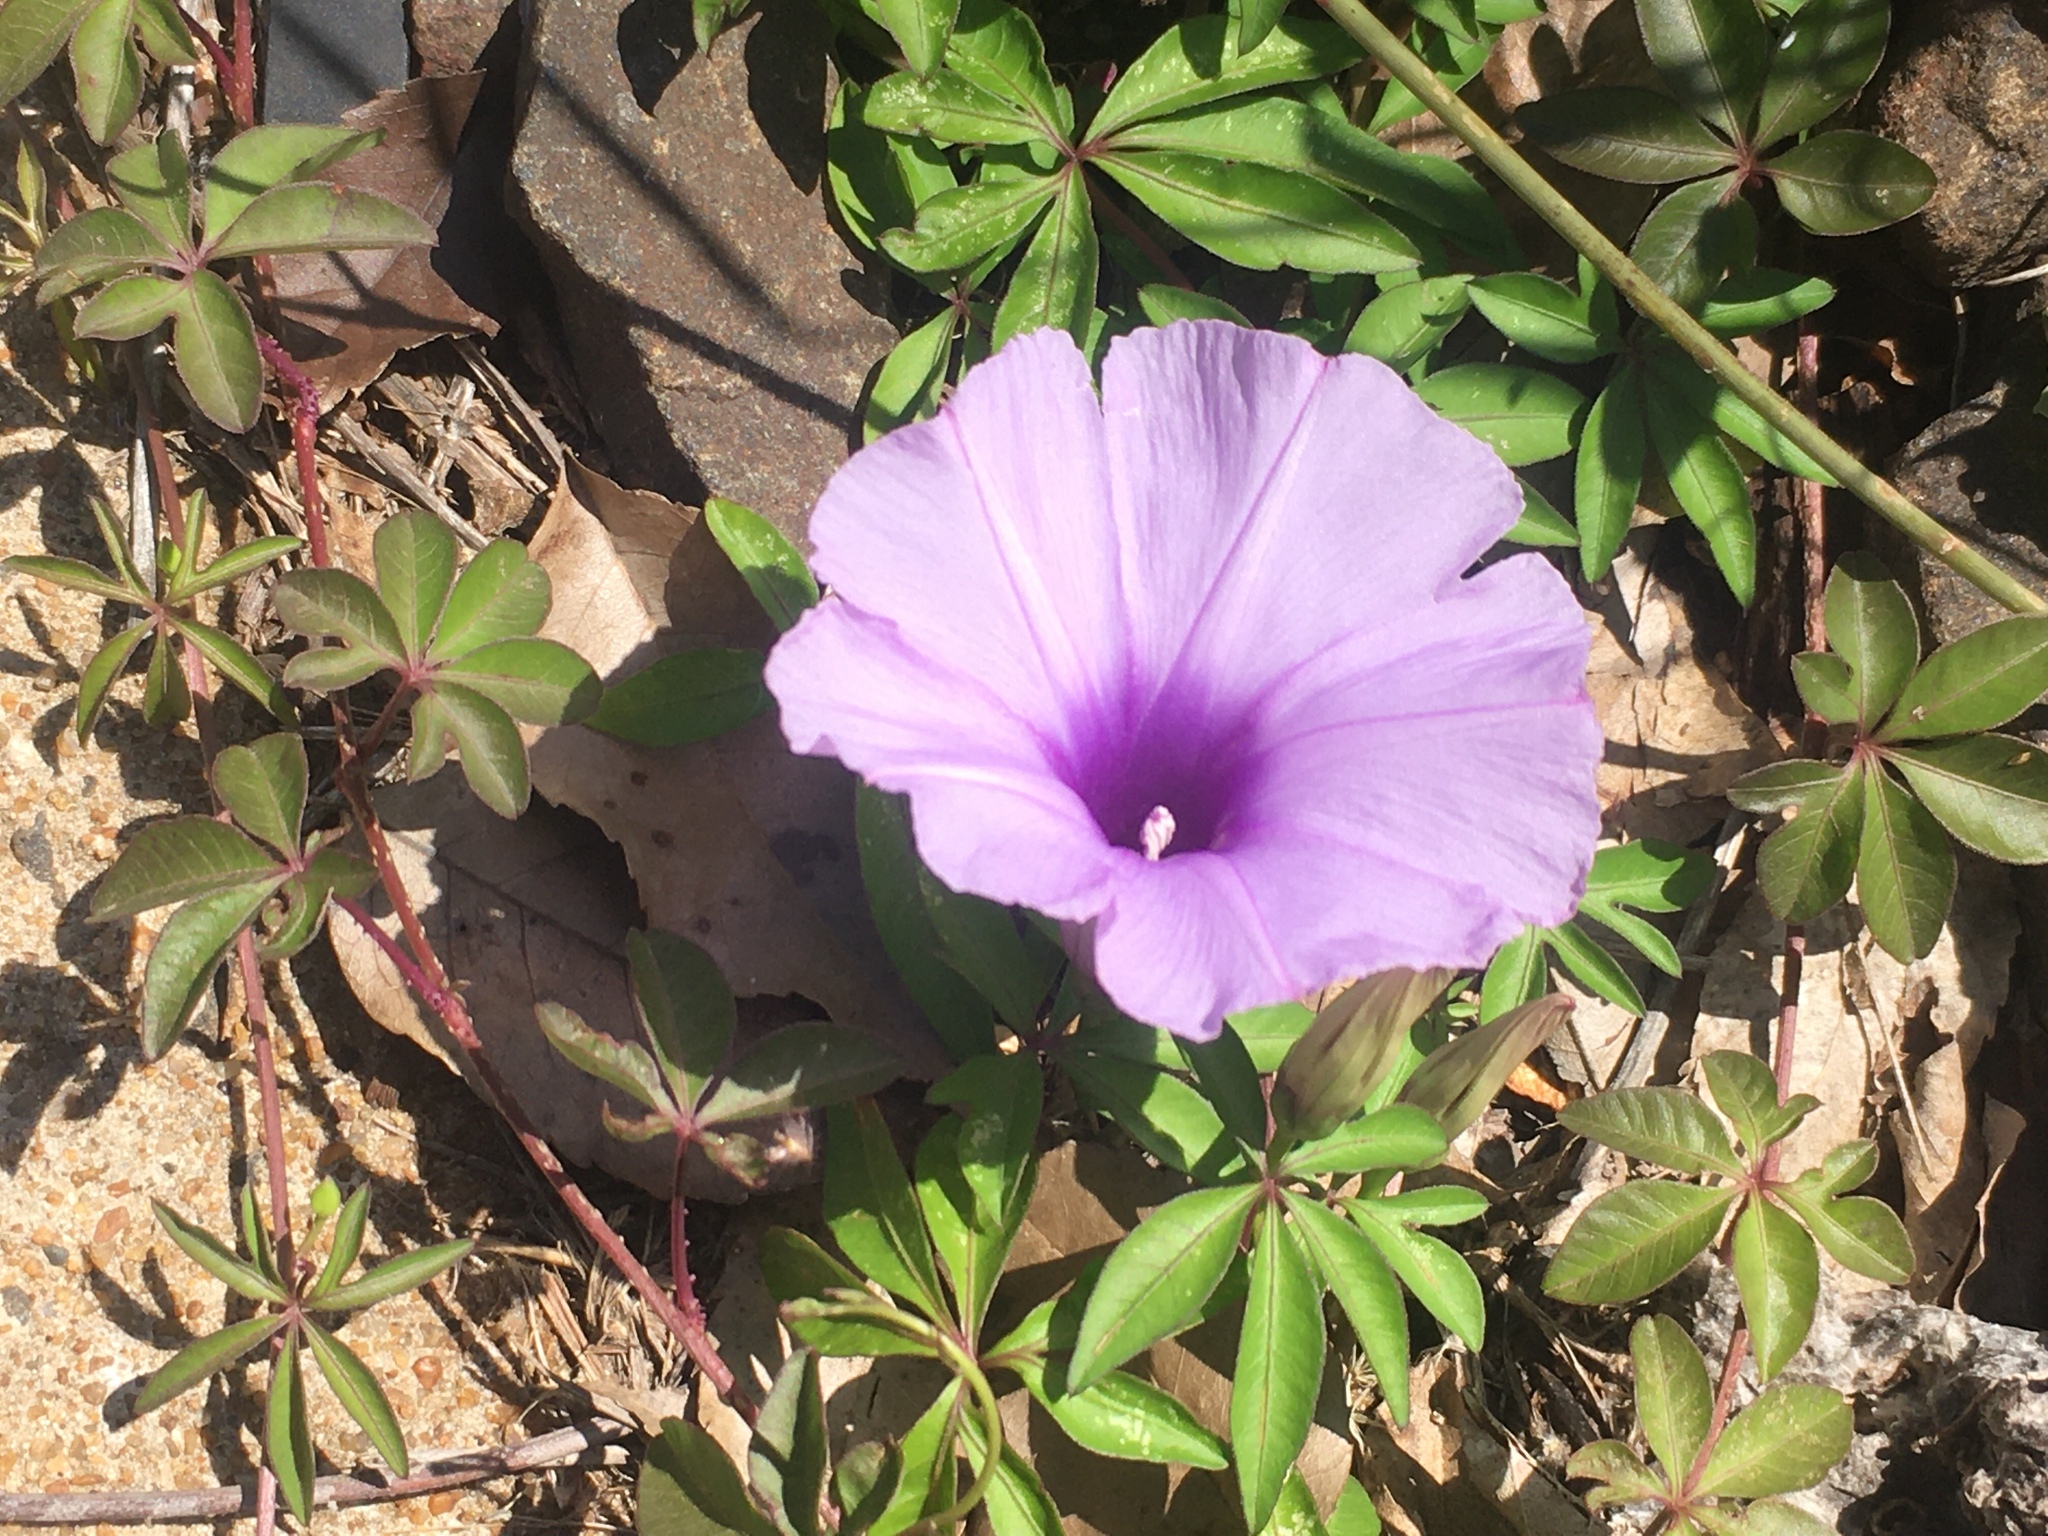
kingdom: Plantae
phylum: Tracheophyta
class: Magnoliopsida
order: Solanales
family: Convolvulaceae
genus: Ipomoea
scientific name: Ipomoea cairica
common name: Mile a minute vine
